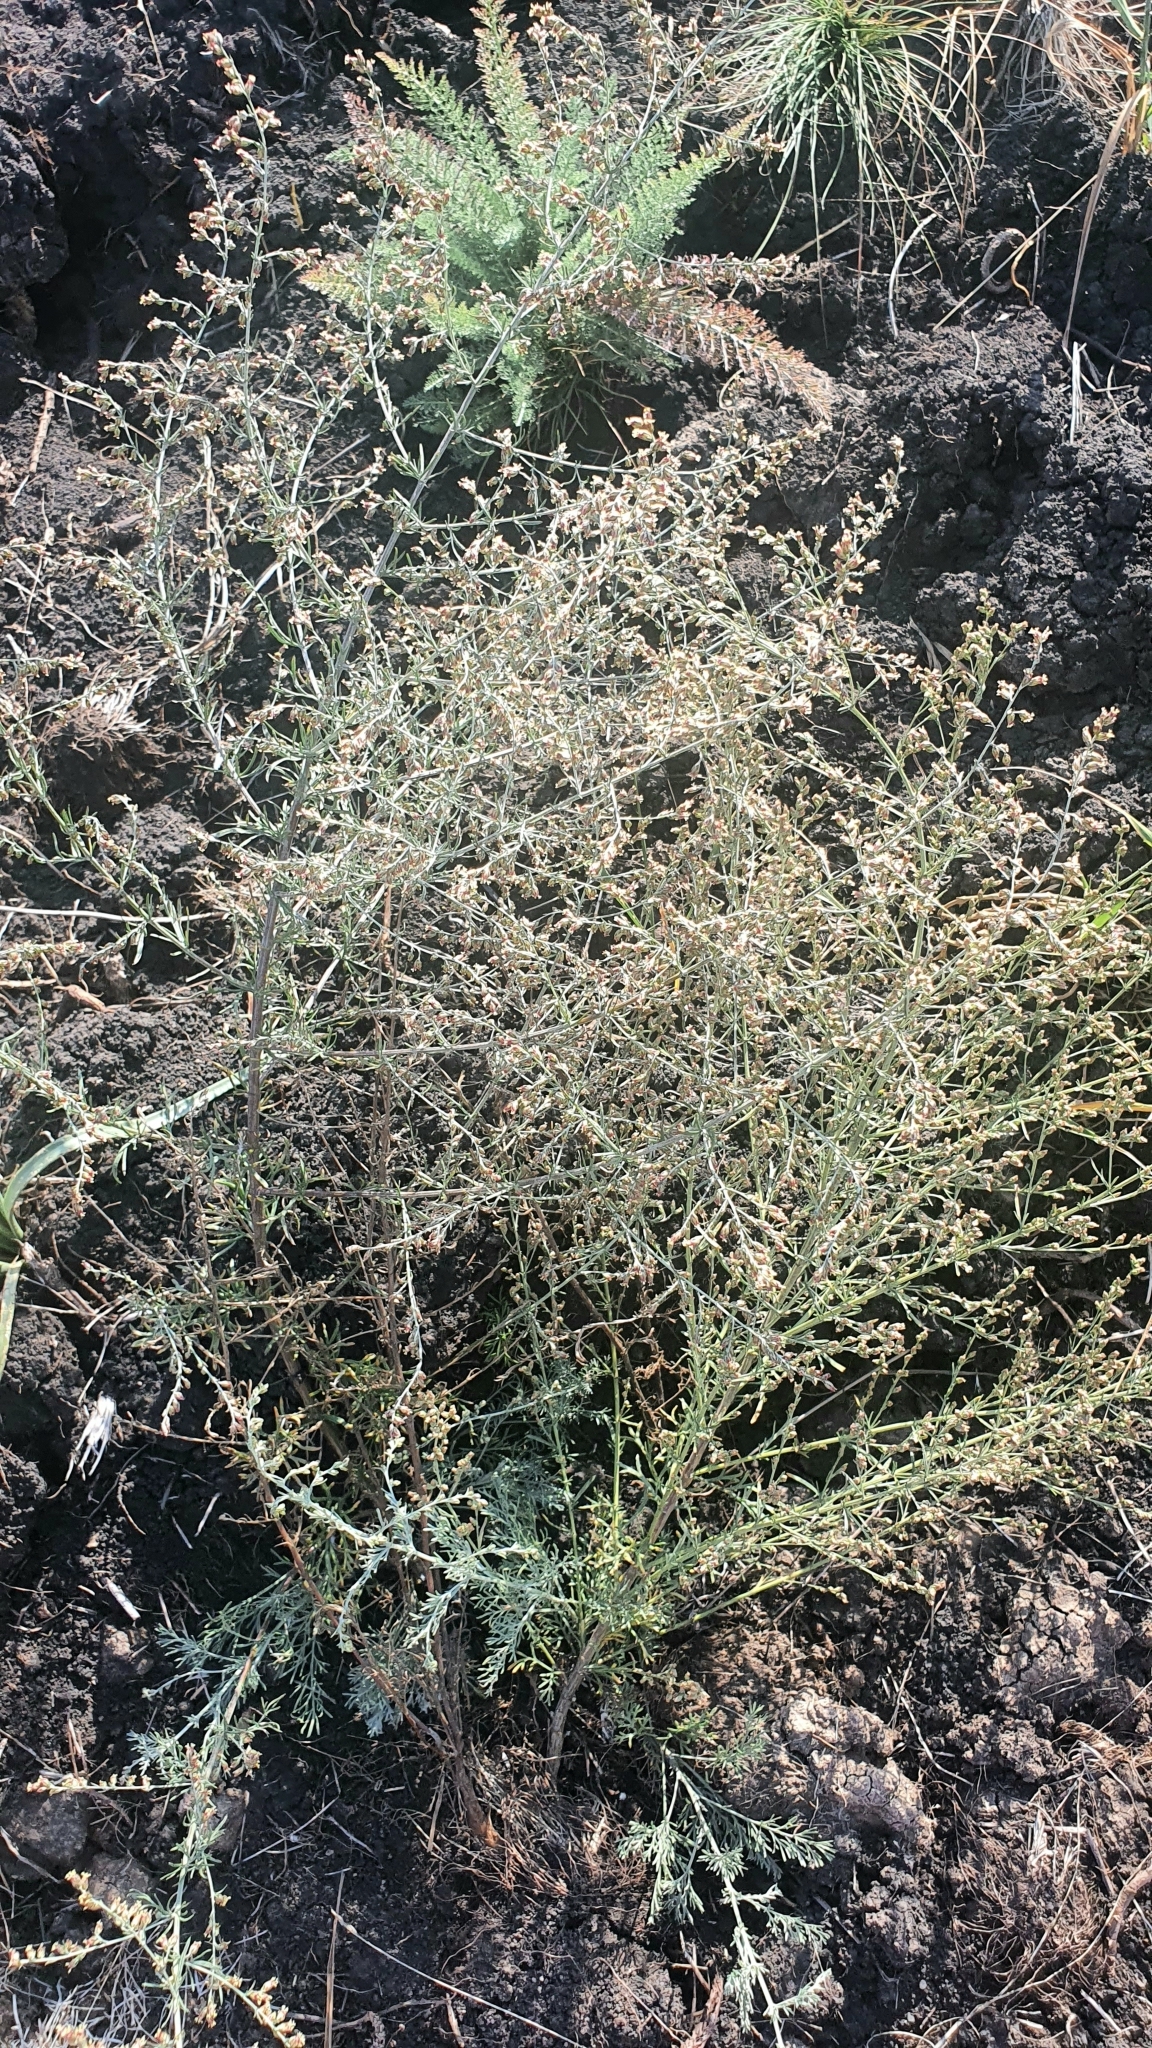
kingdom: Plantae
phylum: Tracheophyta
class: Magnoliopsida
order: Asterales
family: Asteraceae
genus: Artemisia
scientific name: Artemisia santonicum
